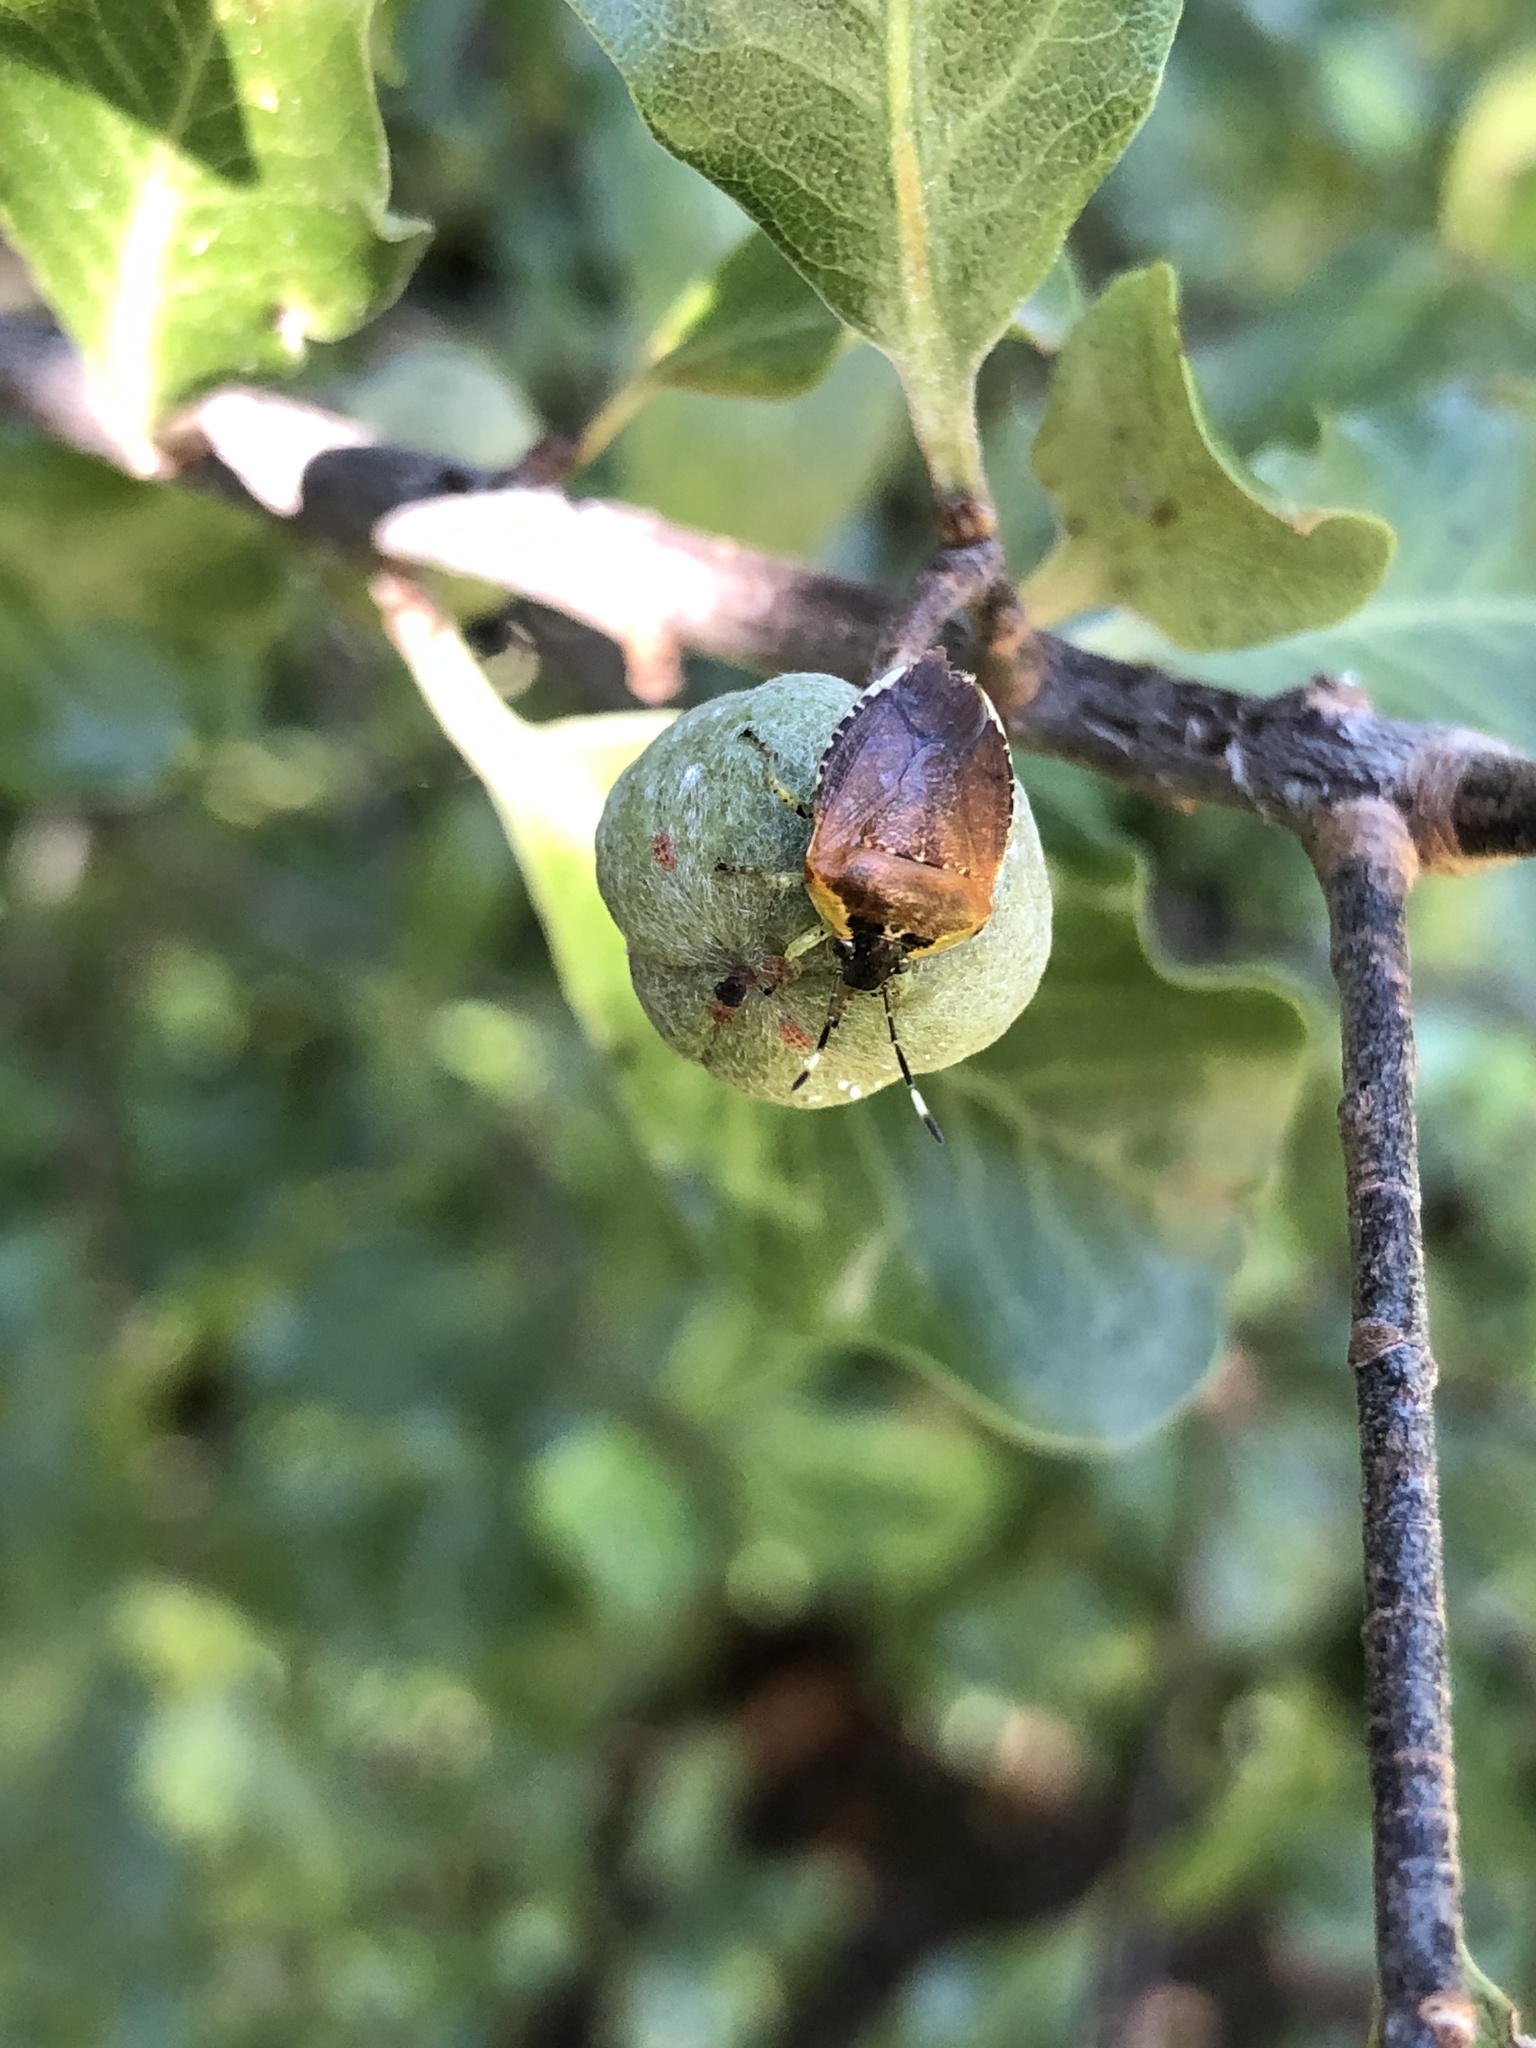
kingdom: Animalia
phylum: Arthropoda
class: Insecta
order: Hemiptera
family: Pentatomidae
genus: Monteithiella
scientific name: Monteithiella
